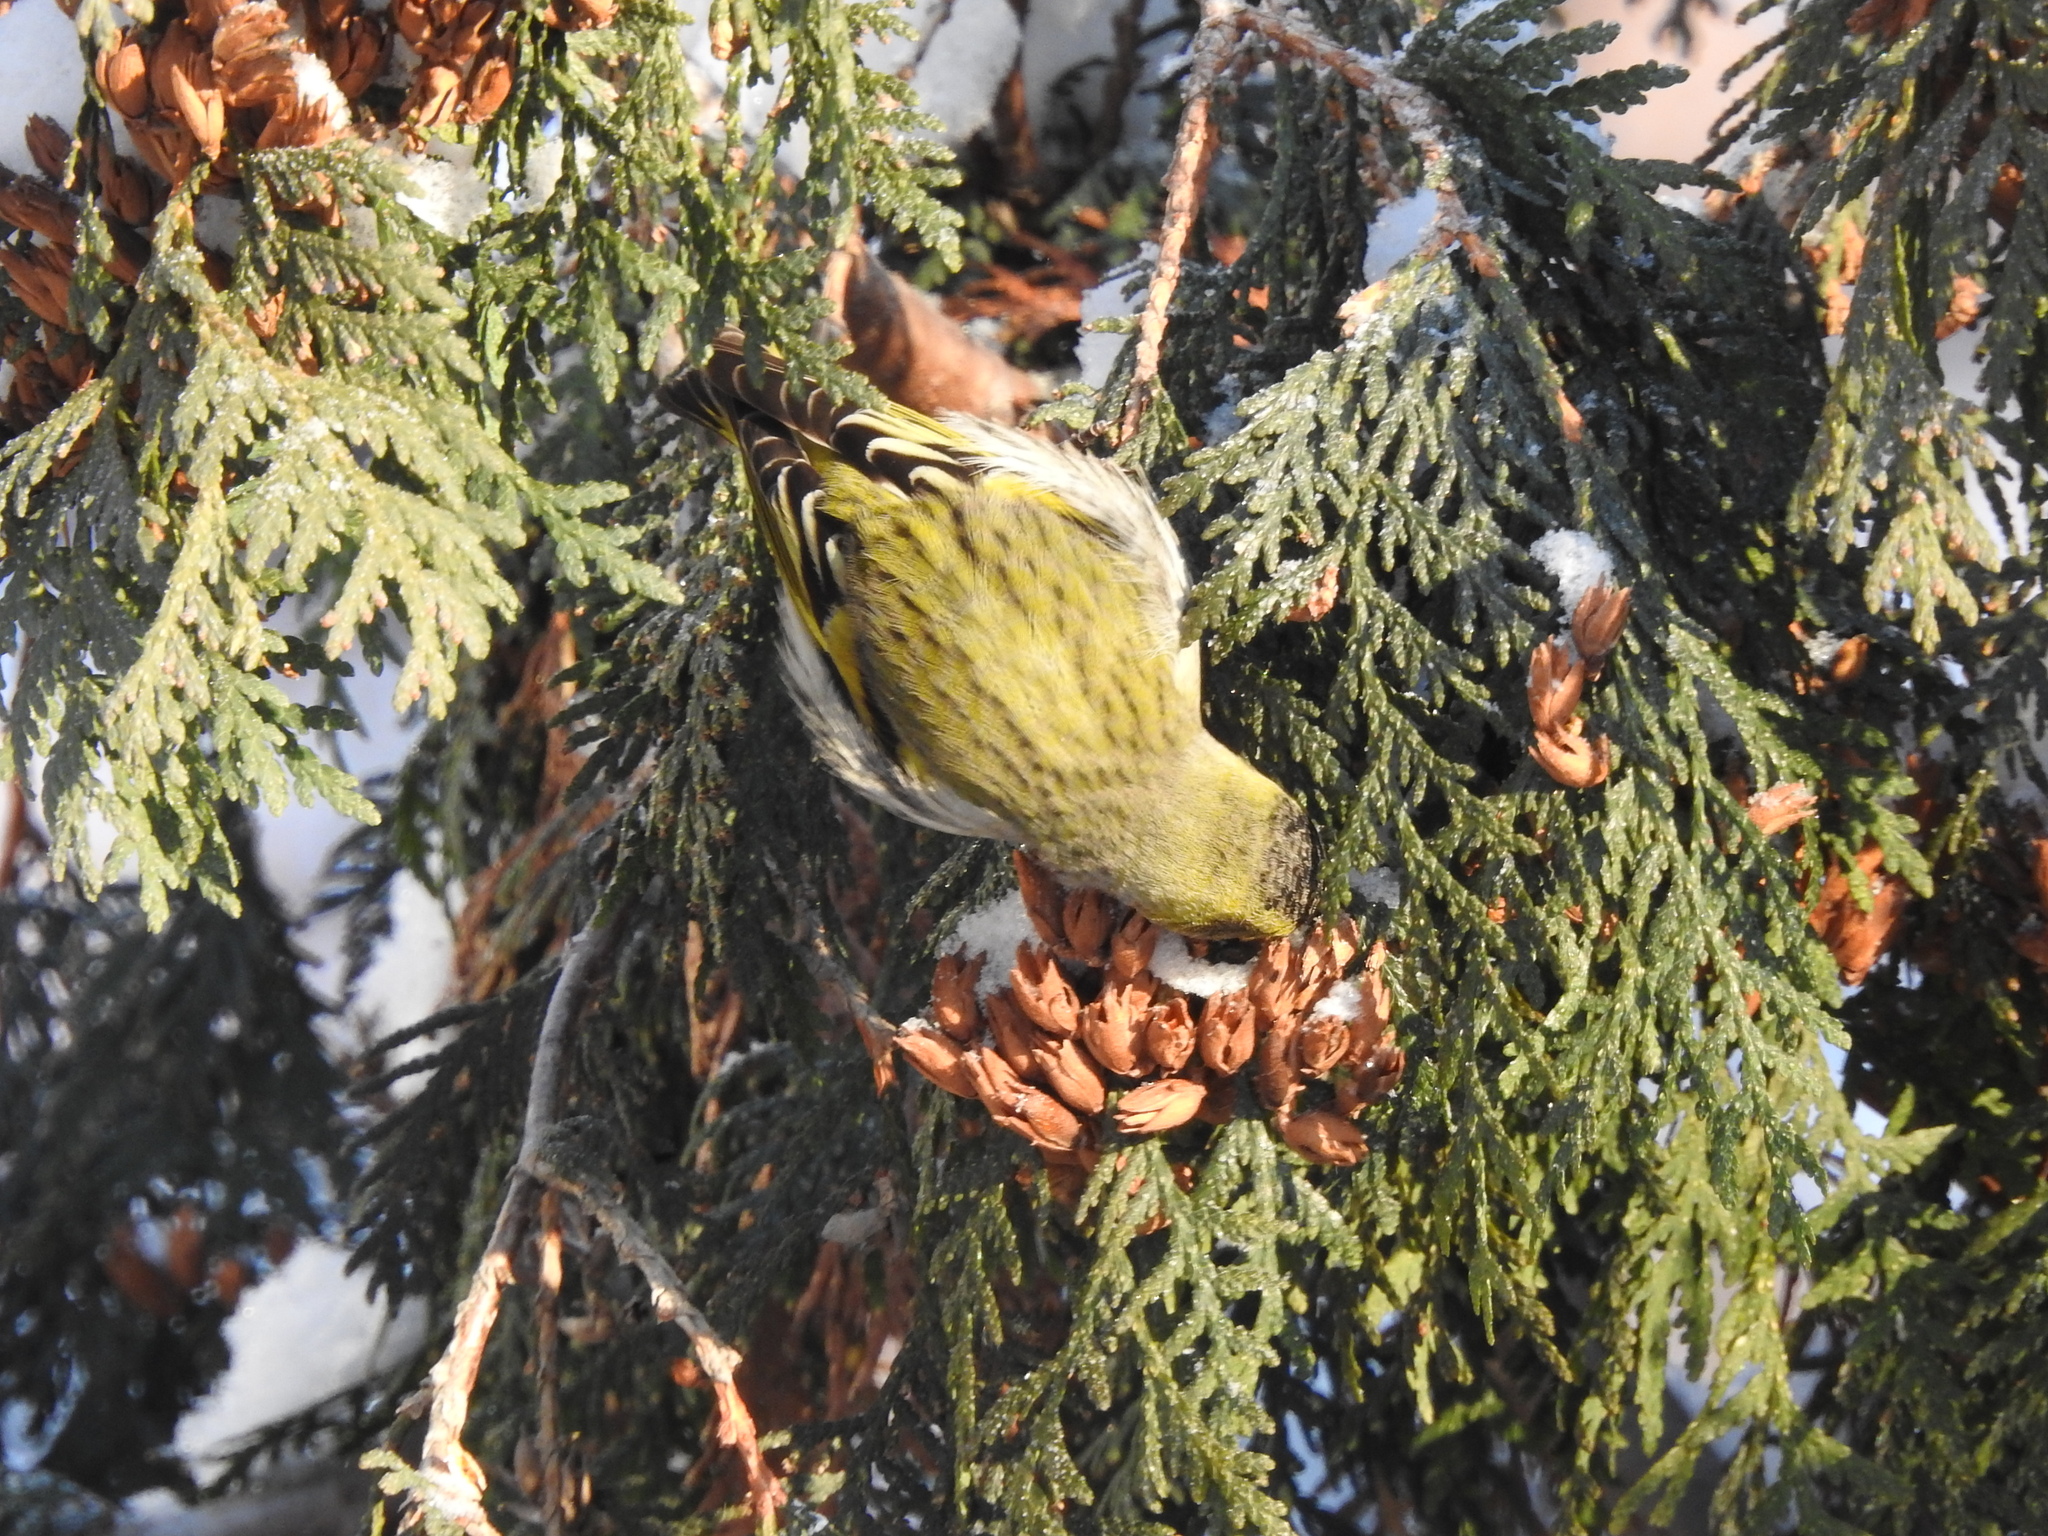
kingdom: Animalia
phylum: Chordata
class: Aves
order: Passeriformes
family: Fringillidae
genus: Spinus
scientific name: Spinus spinus
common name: Eurasian siskin
